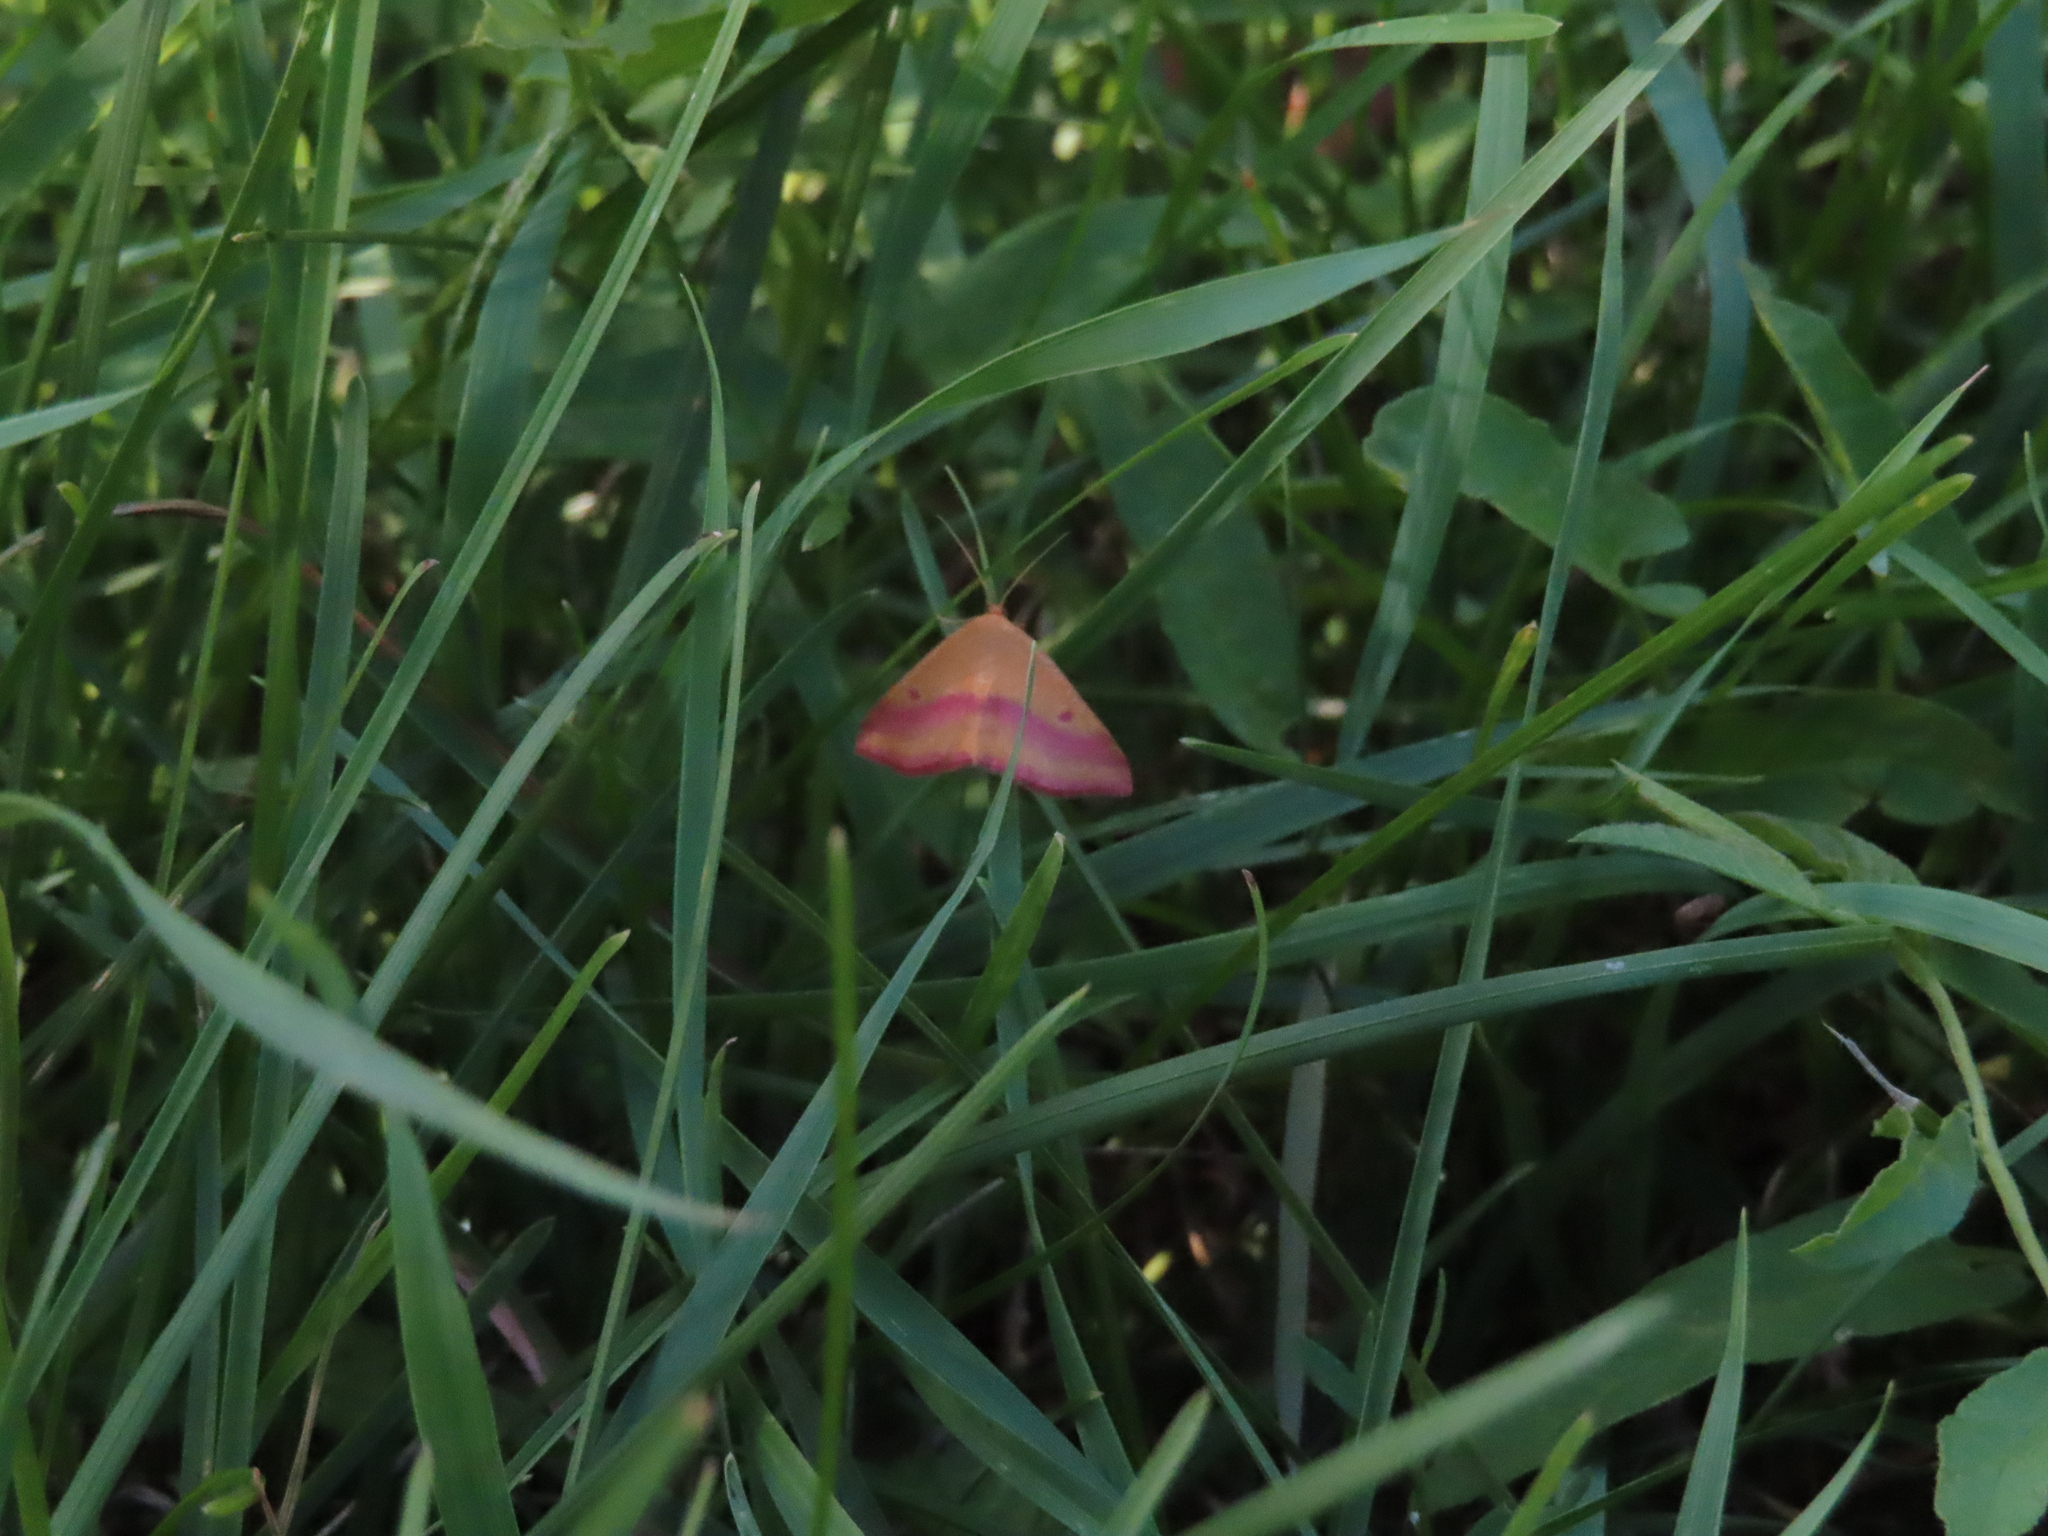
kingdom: Animalia
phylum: Arthropoda
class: Insecta
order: Lepidoptera
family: Geometridae
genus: Haematopis
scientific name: Haematopis grataria
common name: Chickweed geometer
